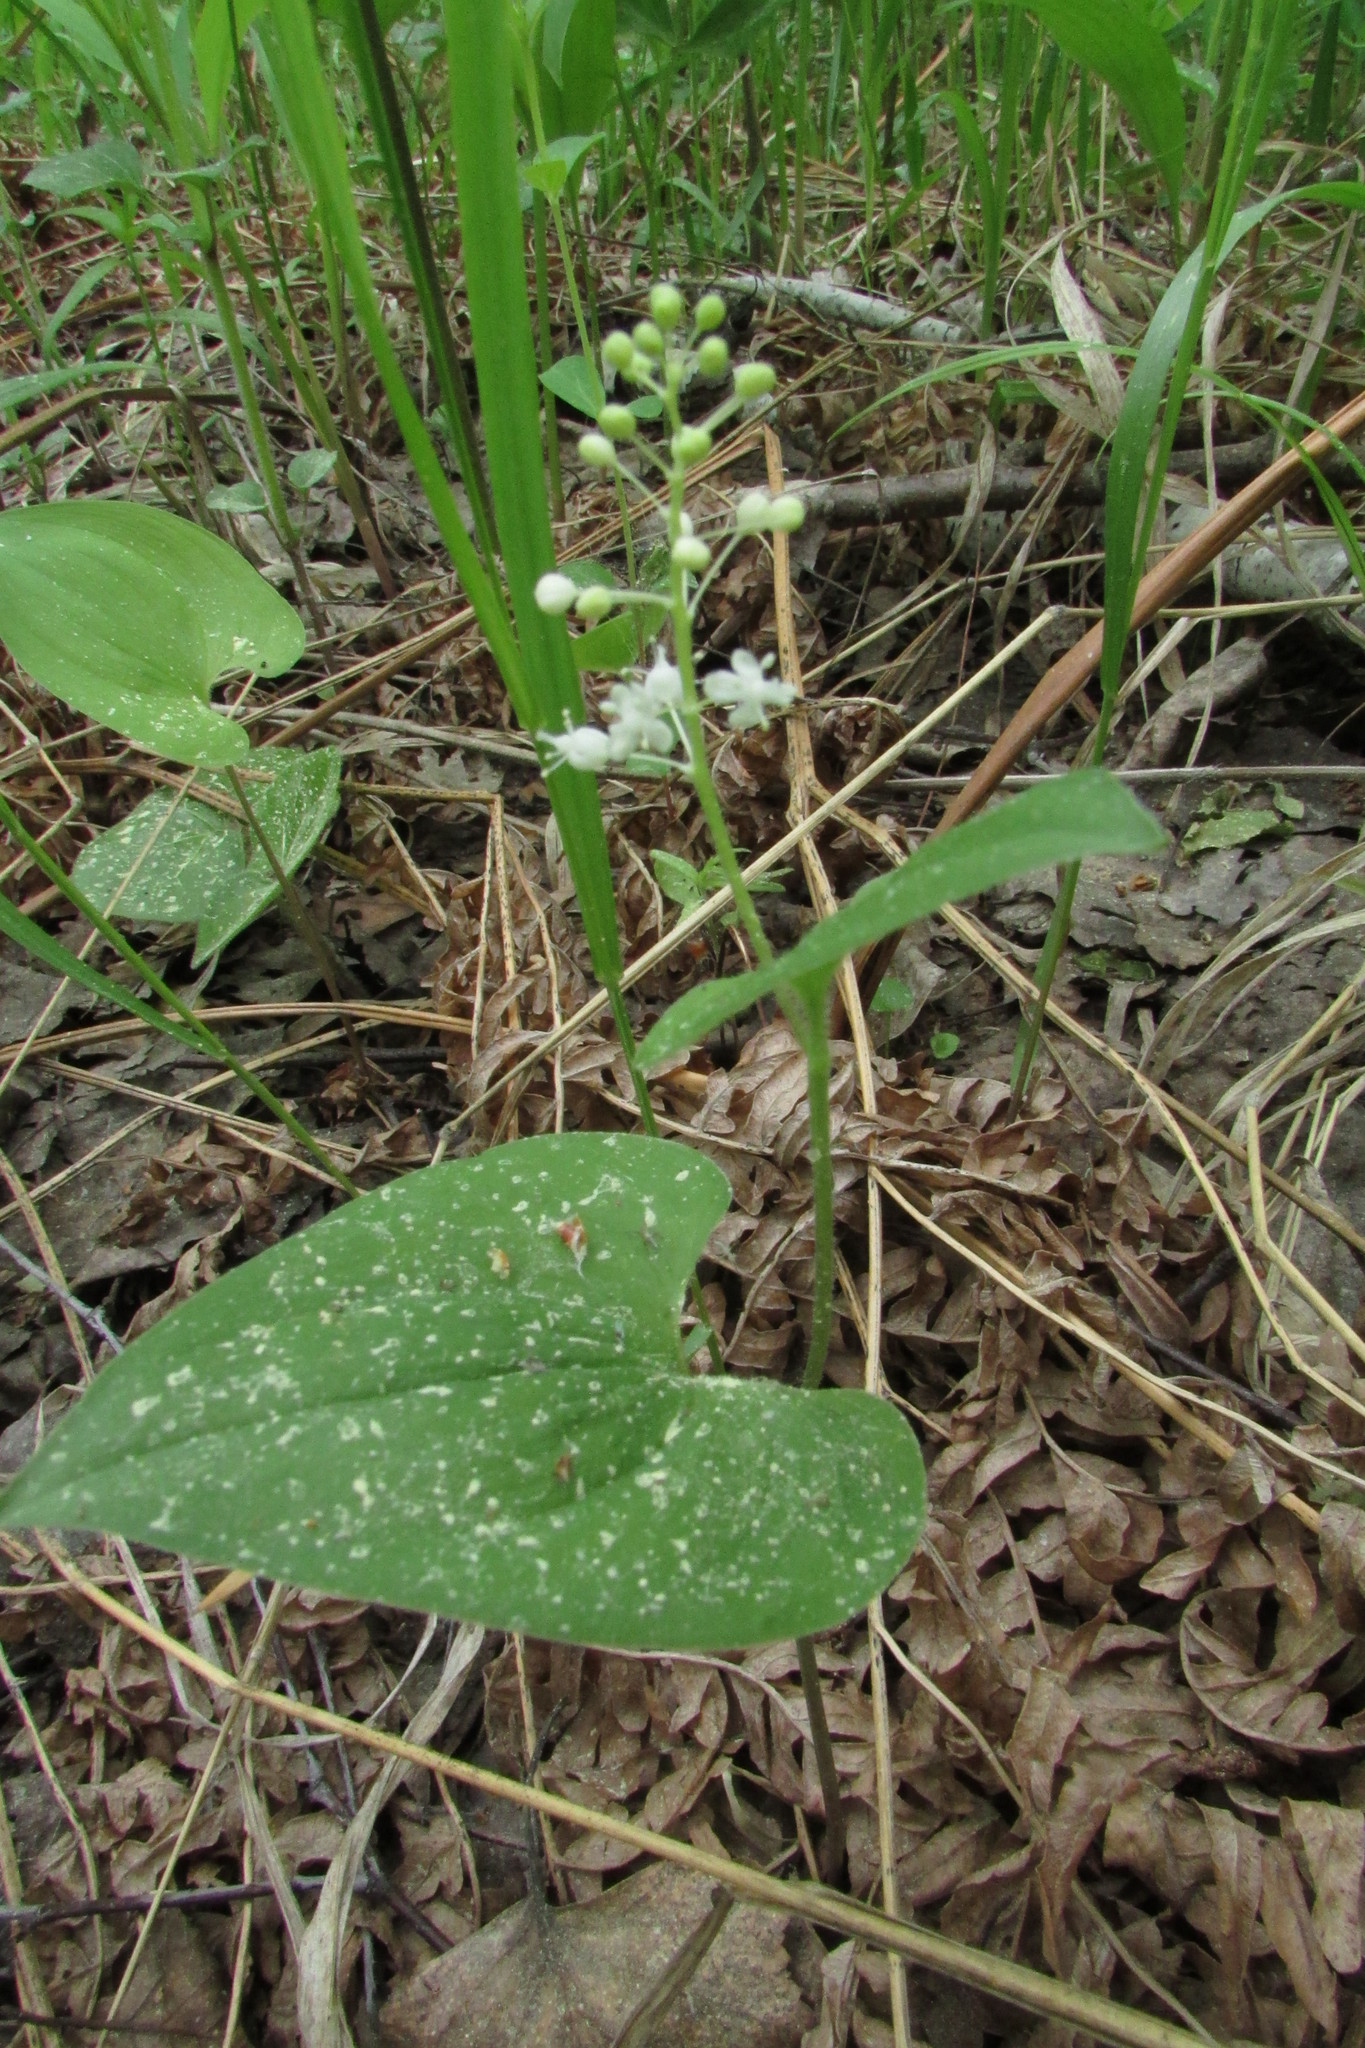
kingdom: Plantae
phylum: Tracheophyta
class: Liliopsida
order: Asparagales
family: Asparagaceae
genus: Maianthemum
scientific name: Maianthemum bifolium
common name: May lily
